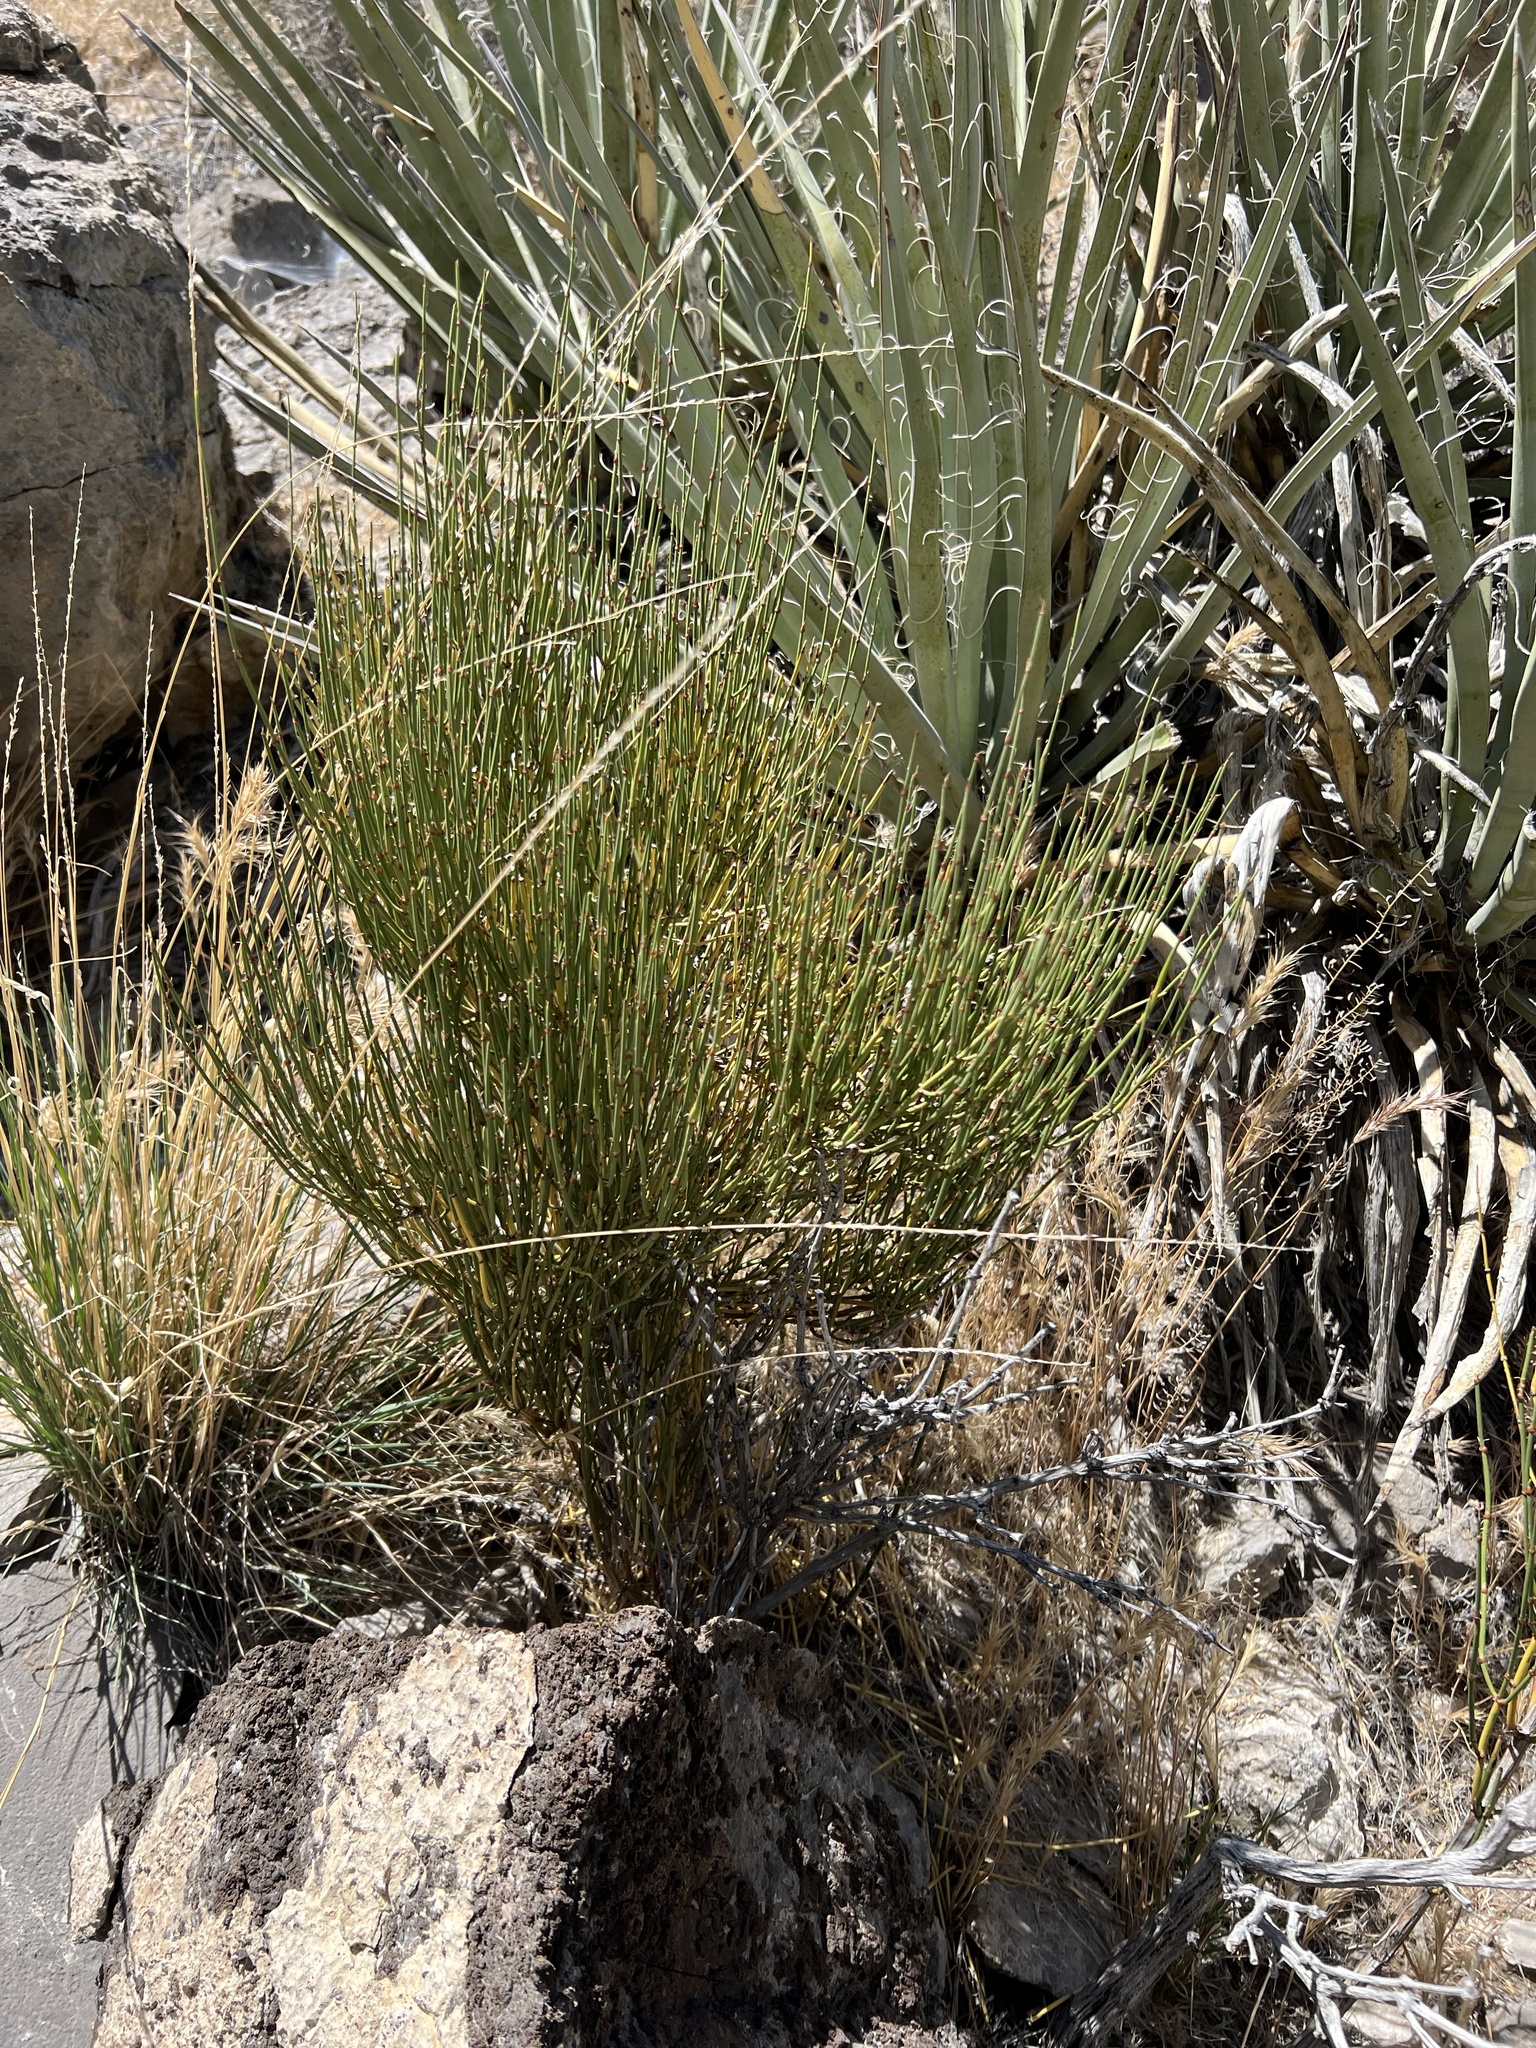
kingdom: Plantae
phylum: Tracheophyta
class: Gnetopsida
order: Ephedrales
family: Ephedraceae
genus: Ephedra
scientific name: Ephedra viridis
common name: Green ephedra
